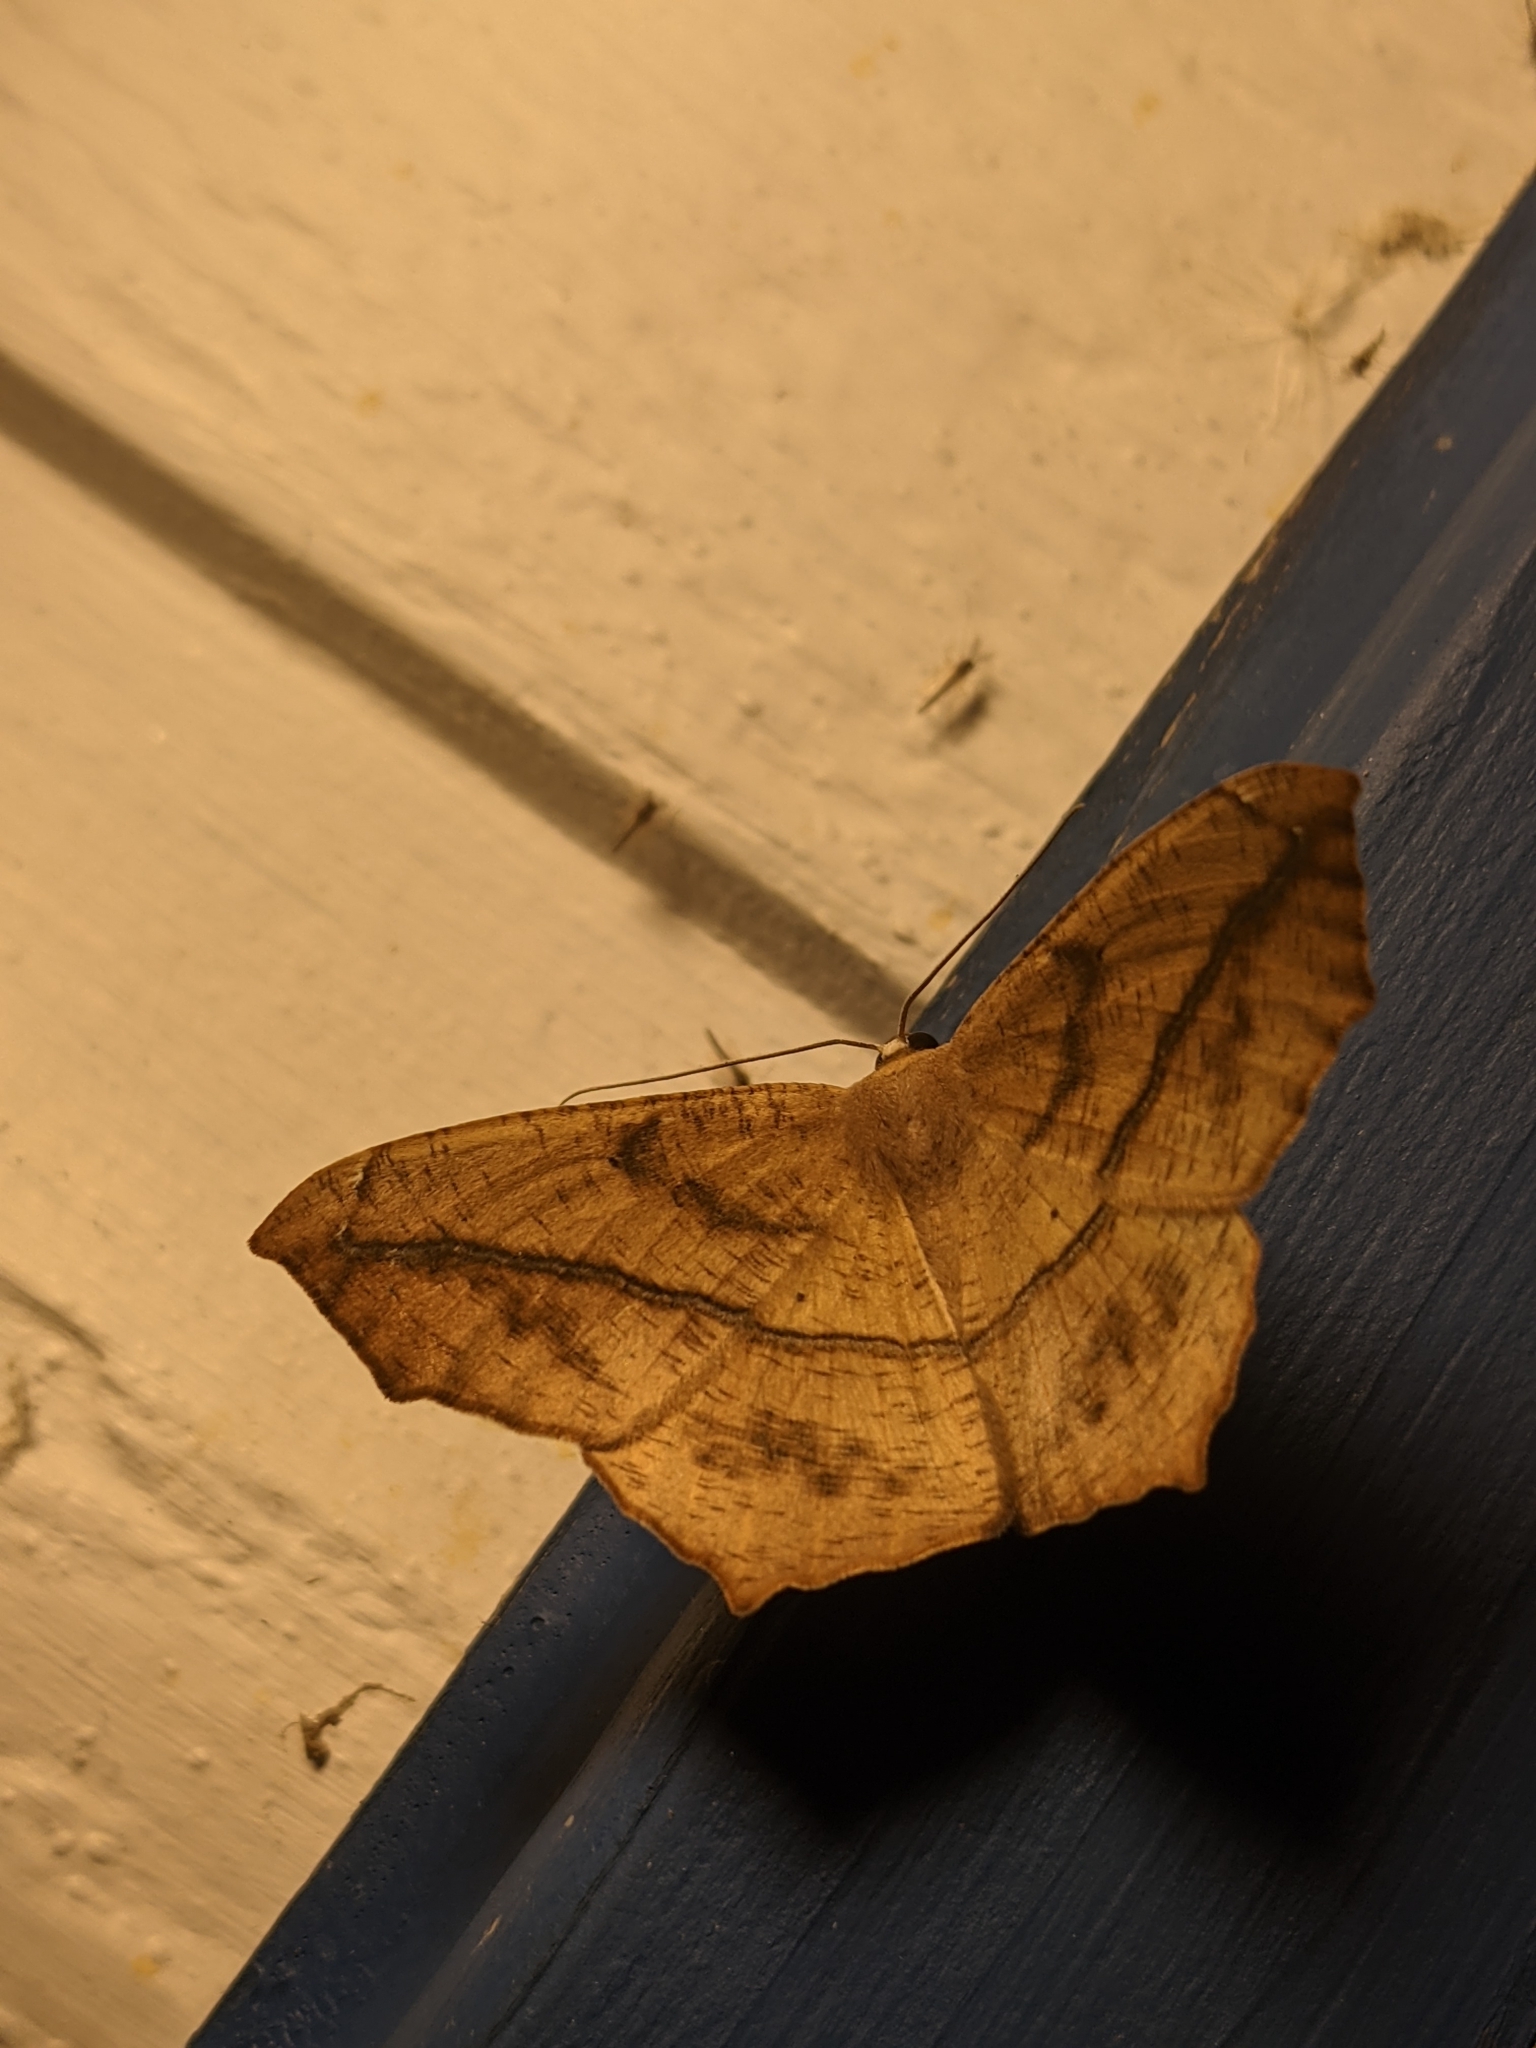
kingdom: Animalia
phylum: Arthropoda
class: Insecta
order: Lepidoptera
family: Geometridae
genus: Prochoerodes
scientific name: Prochoerodes lineola
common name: Large maple spanworm
